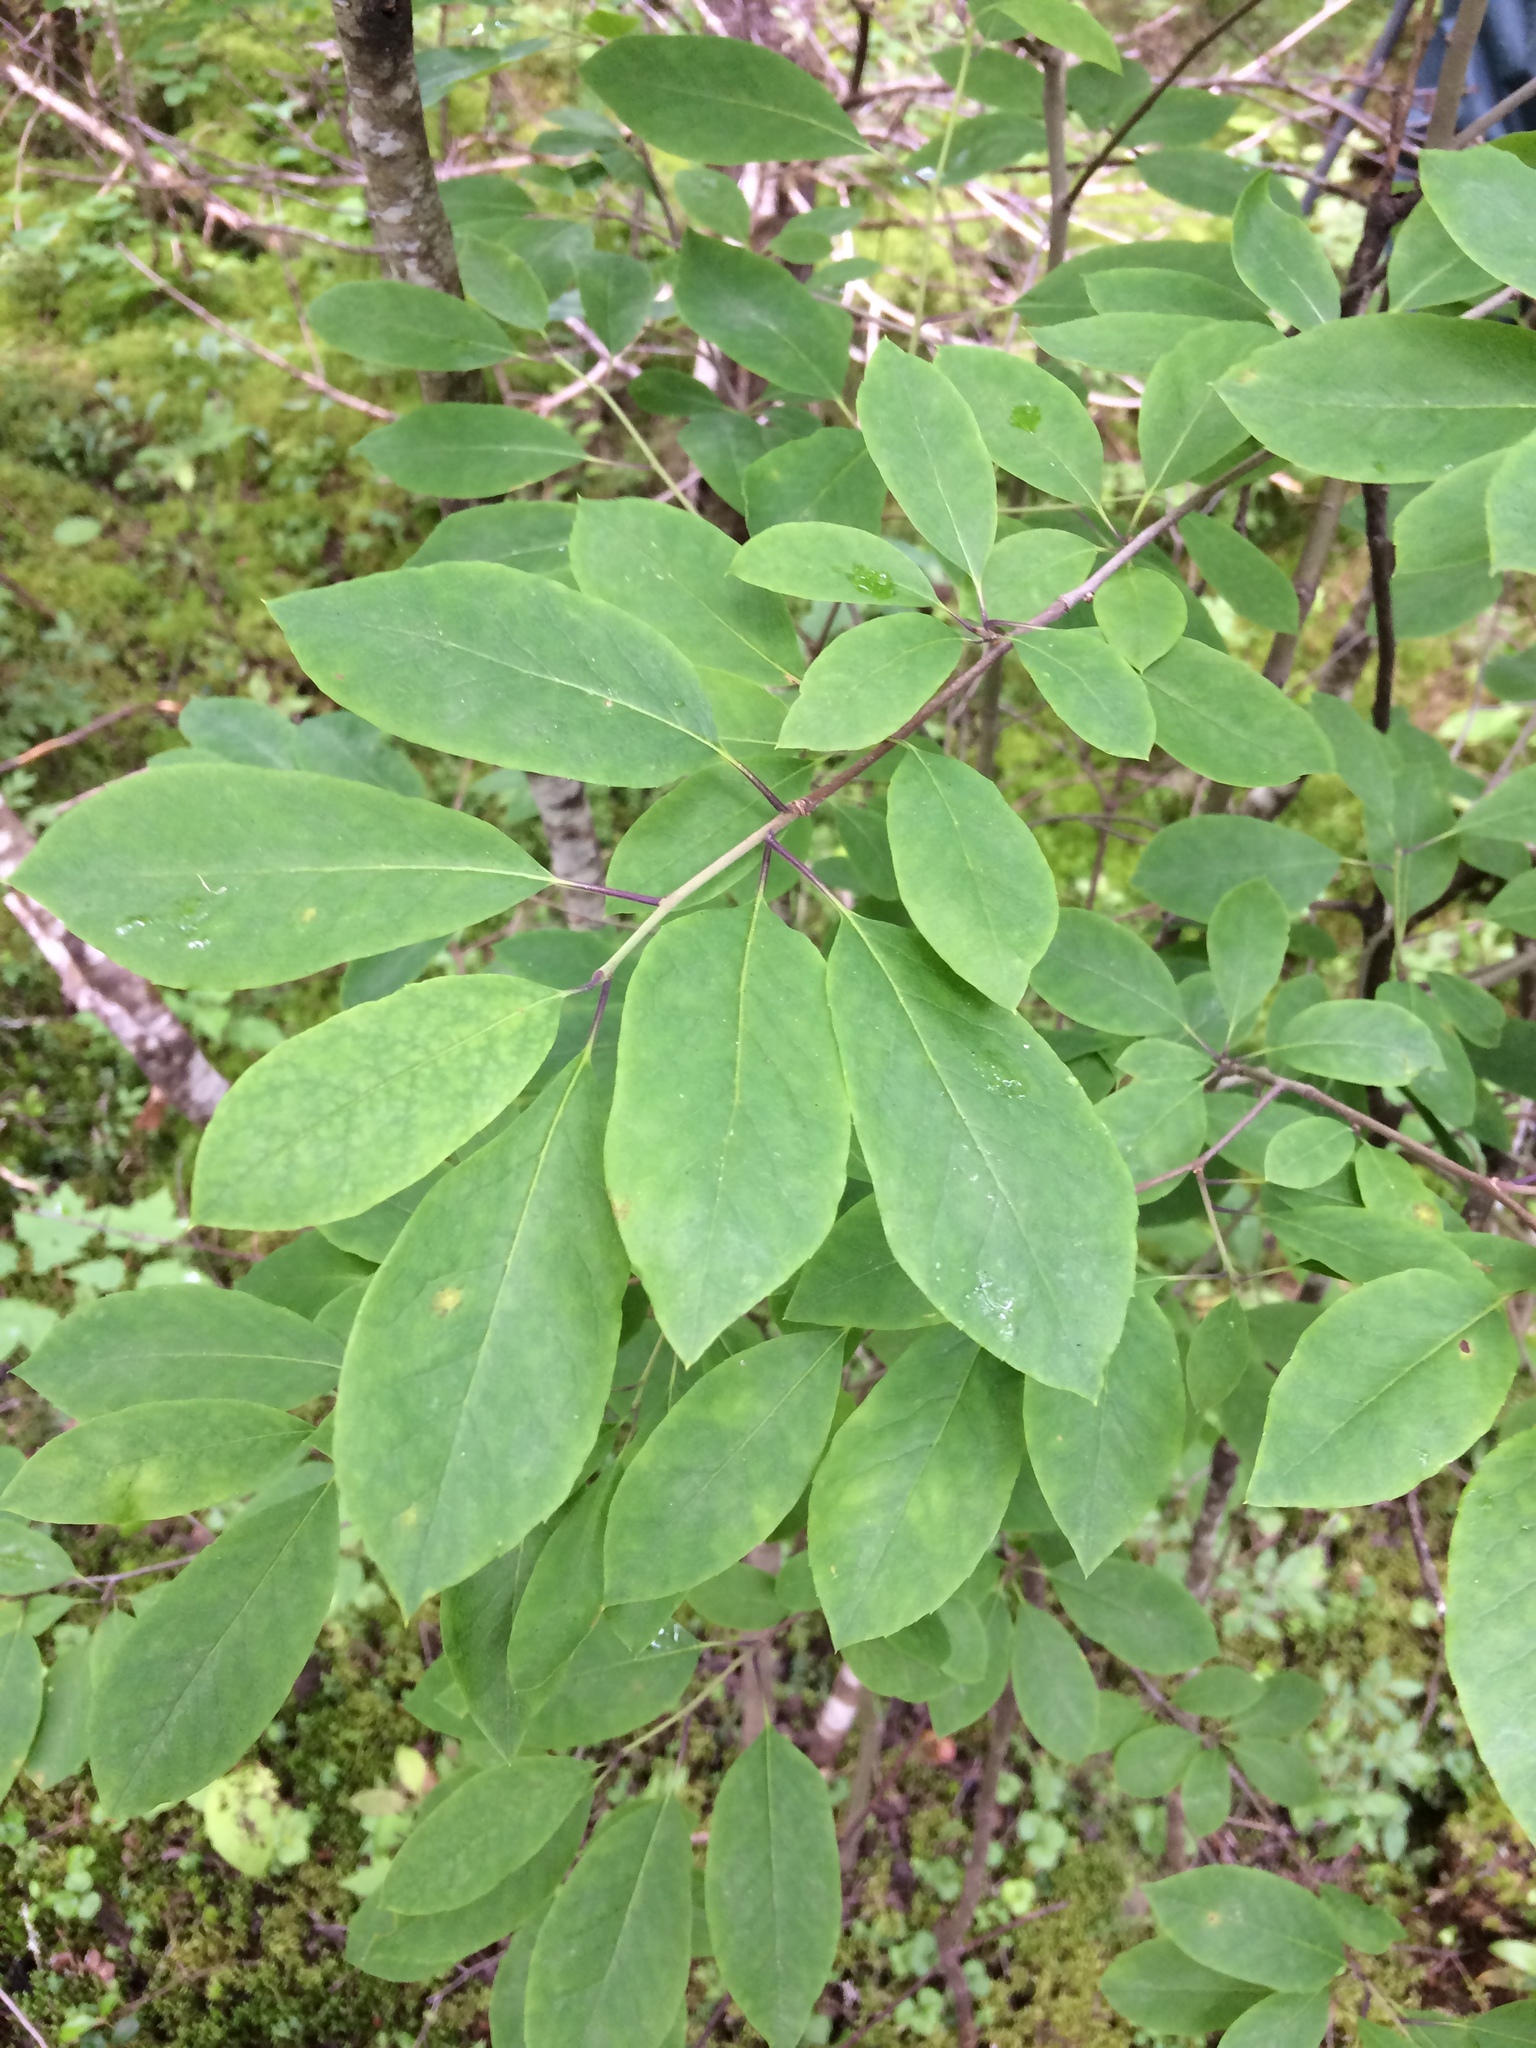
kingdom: Plantae
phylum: Tracheophyta
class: Magnoliopsida
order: Aquifoliales
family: Aquifoliaceae
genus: Ilex
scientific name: Ilex mucronata
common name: Catberry
